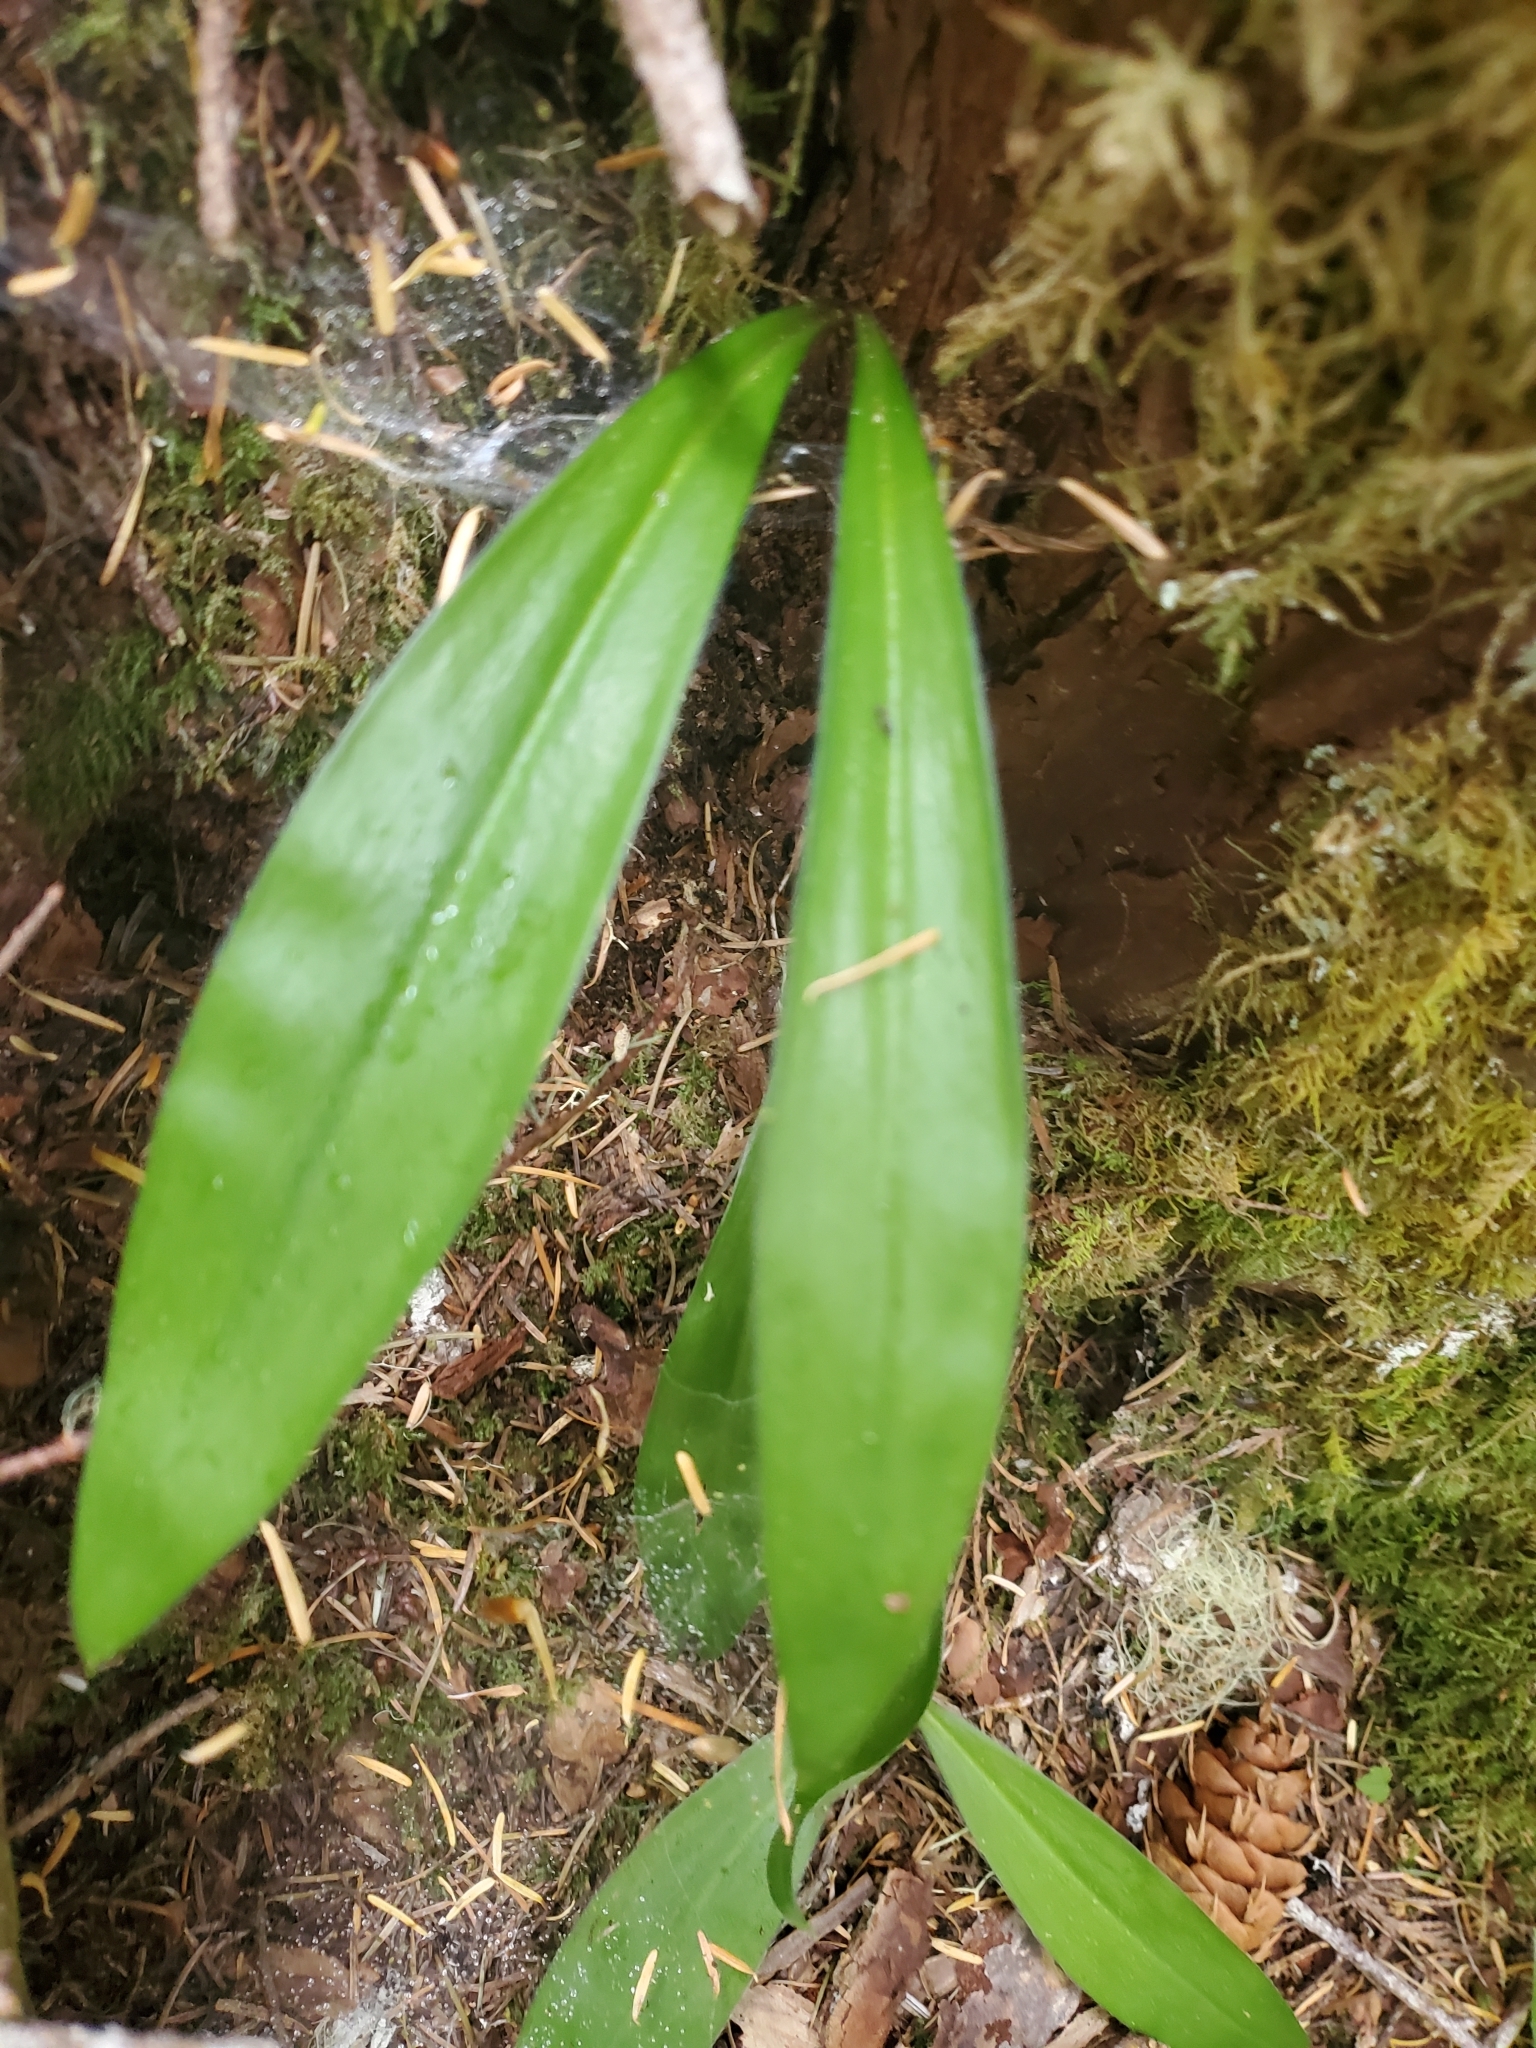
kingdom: Plantae
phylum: Tracheophyta
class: Liliopsida
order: Liliales
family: Liliaceae
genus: Clintonia
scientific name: Clintonia uniflora
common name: Queen's cup
